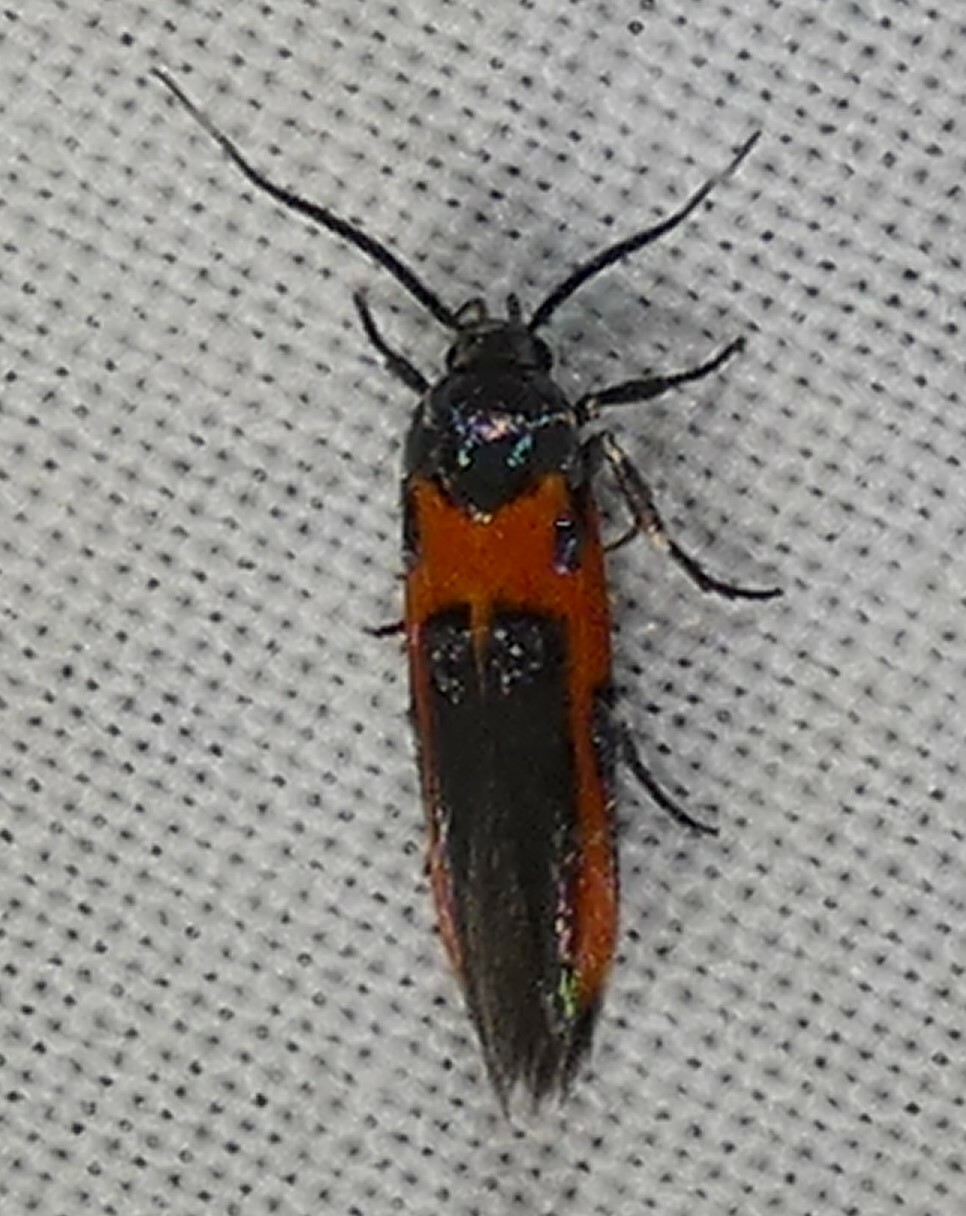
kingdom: Animalia
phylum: Arthropoda
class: Insecta
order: Lepidoptera
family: Cosmopterigidae
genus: Euclemensia
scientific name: Euclemensia bassettella
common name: Kermes scale moth
